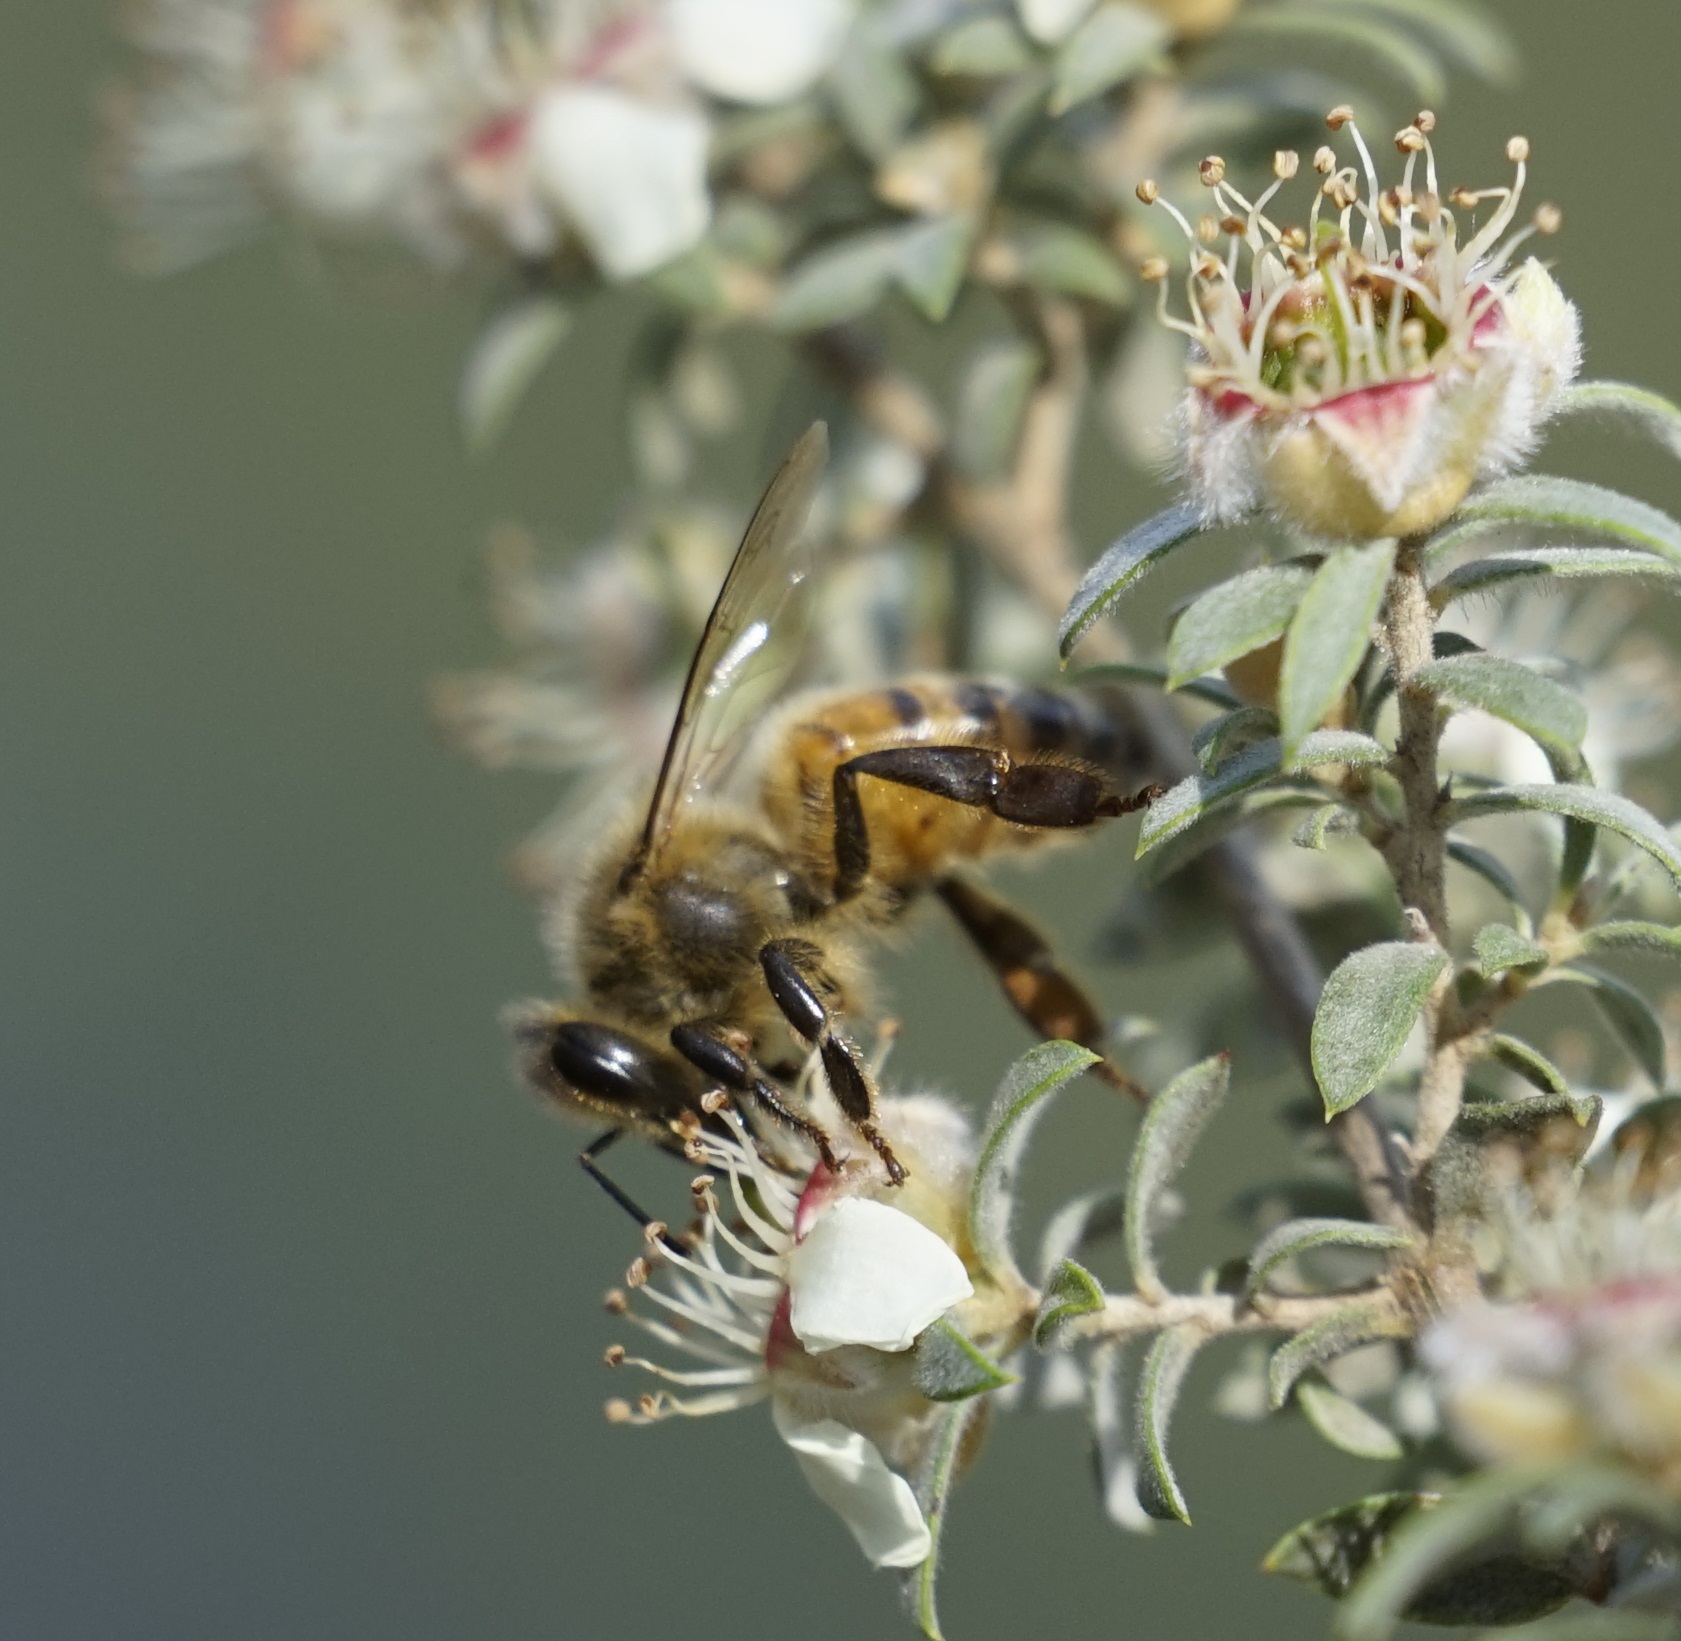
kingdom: Animalia
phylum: Arthropoda
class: Insecta
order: Hymenoptera
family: Apidae
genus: Apis
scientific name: Apis mellifera
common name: Honey bee
